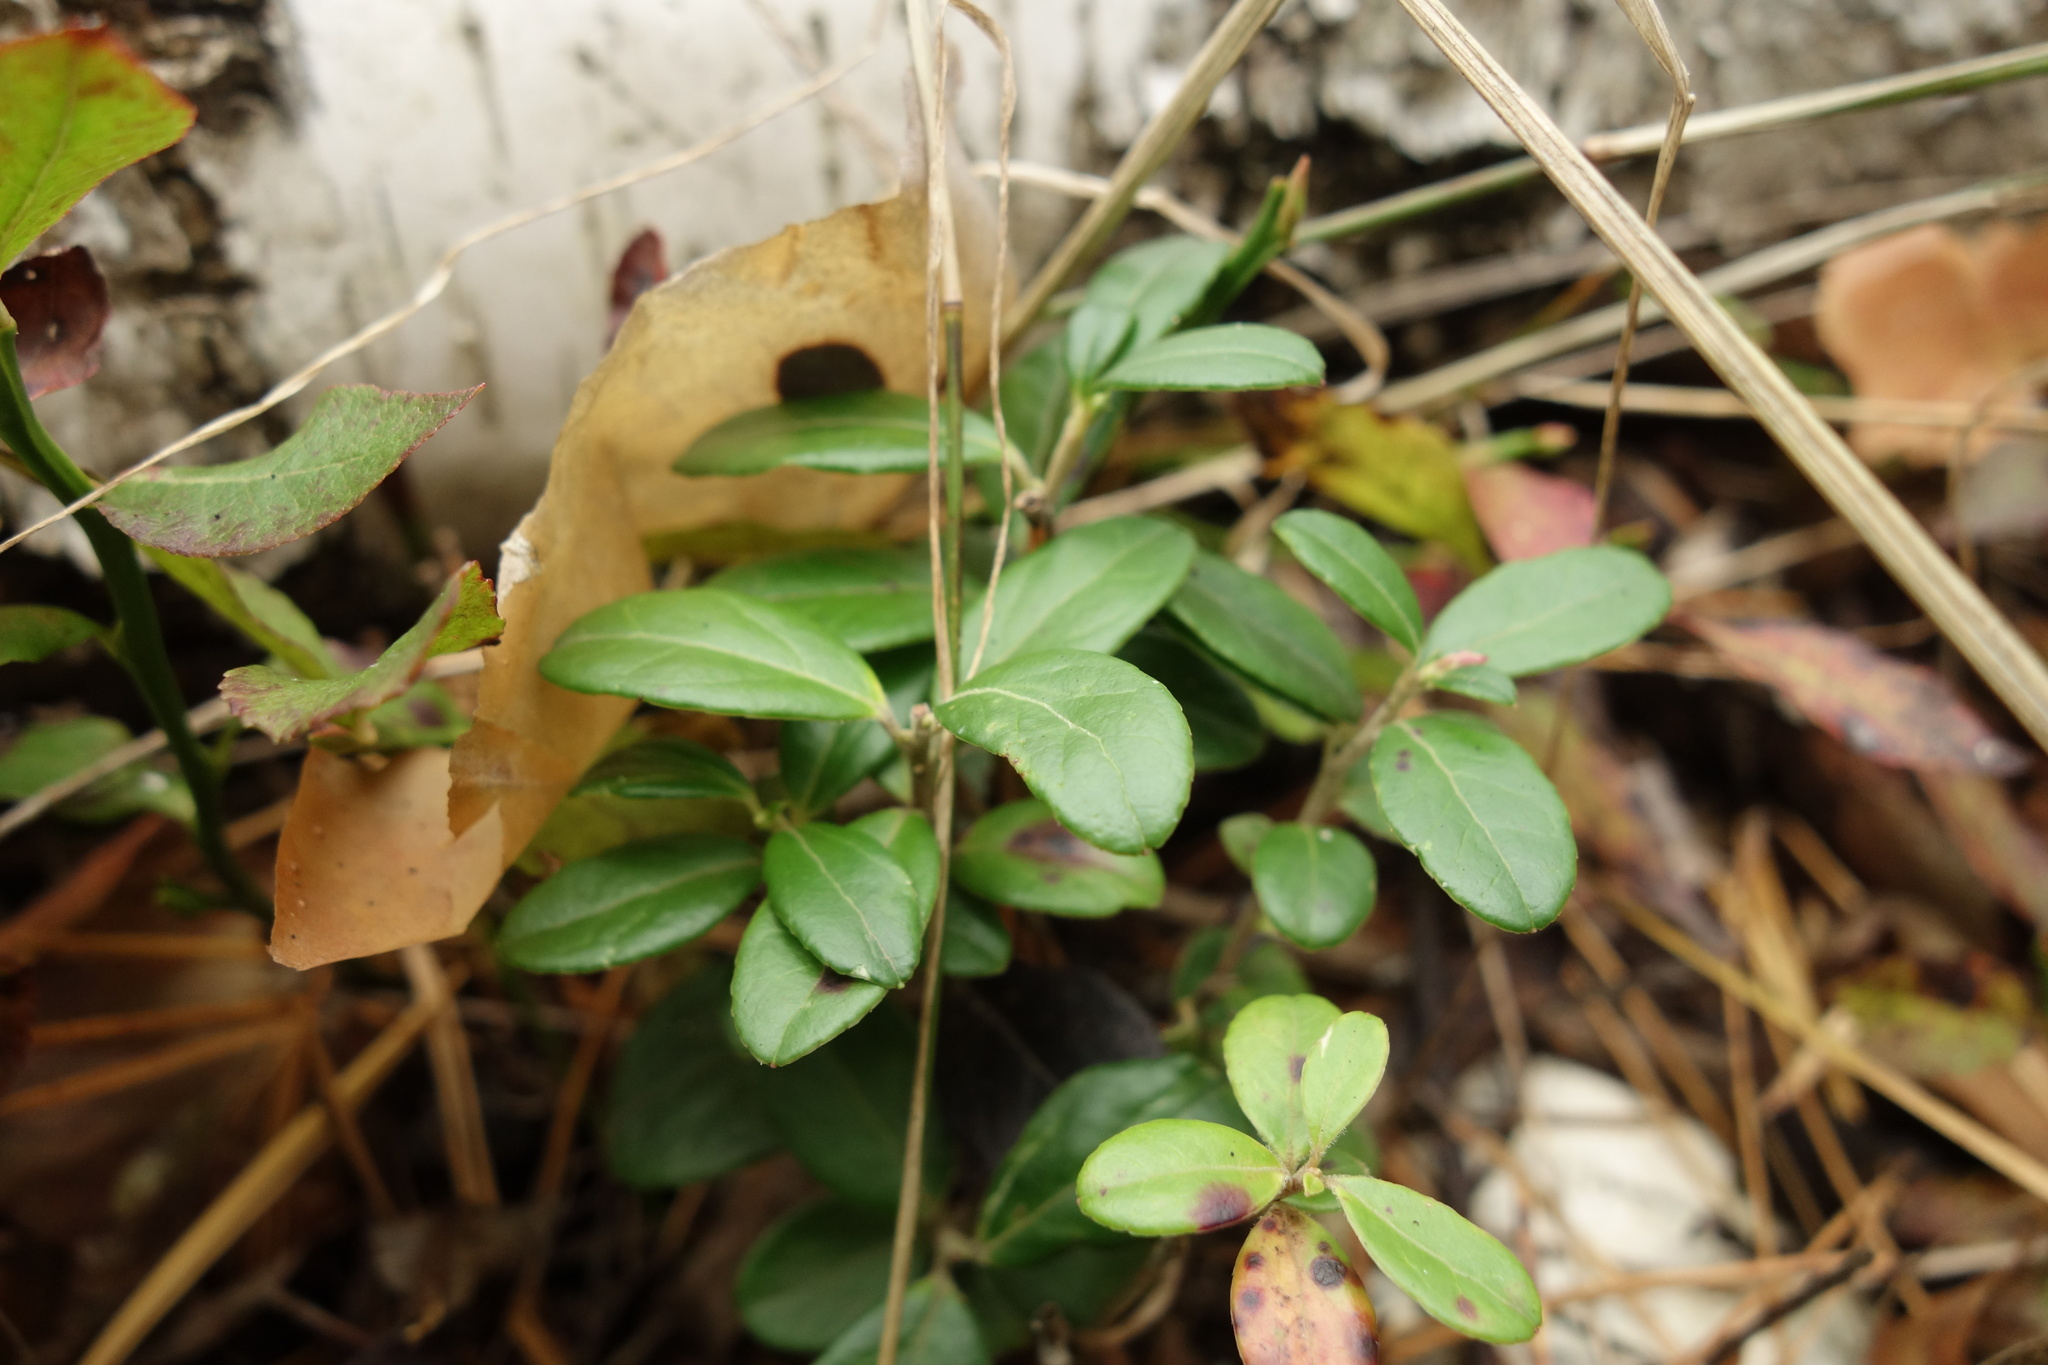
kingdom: Plantae
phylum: Tracheophyta
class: Magnoliopsida
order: Ericales
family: Ericaceae
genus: Vaccinium
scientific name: Vaccinium vitis-idaea
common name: Cowberry
